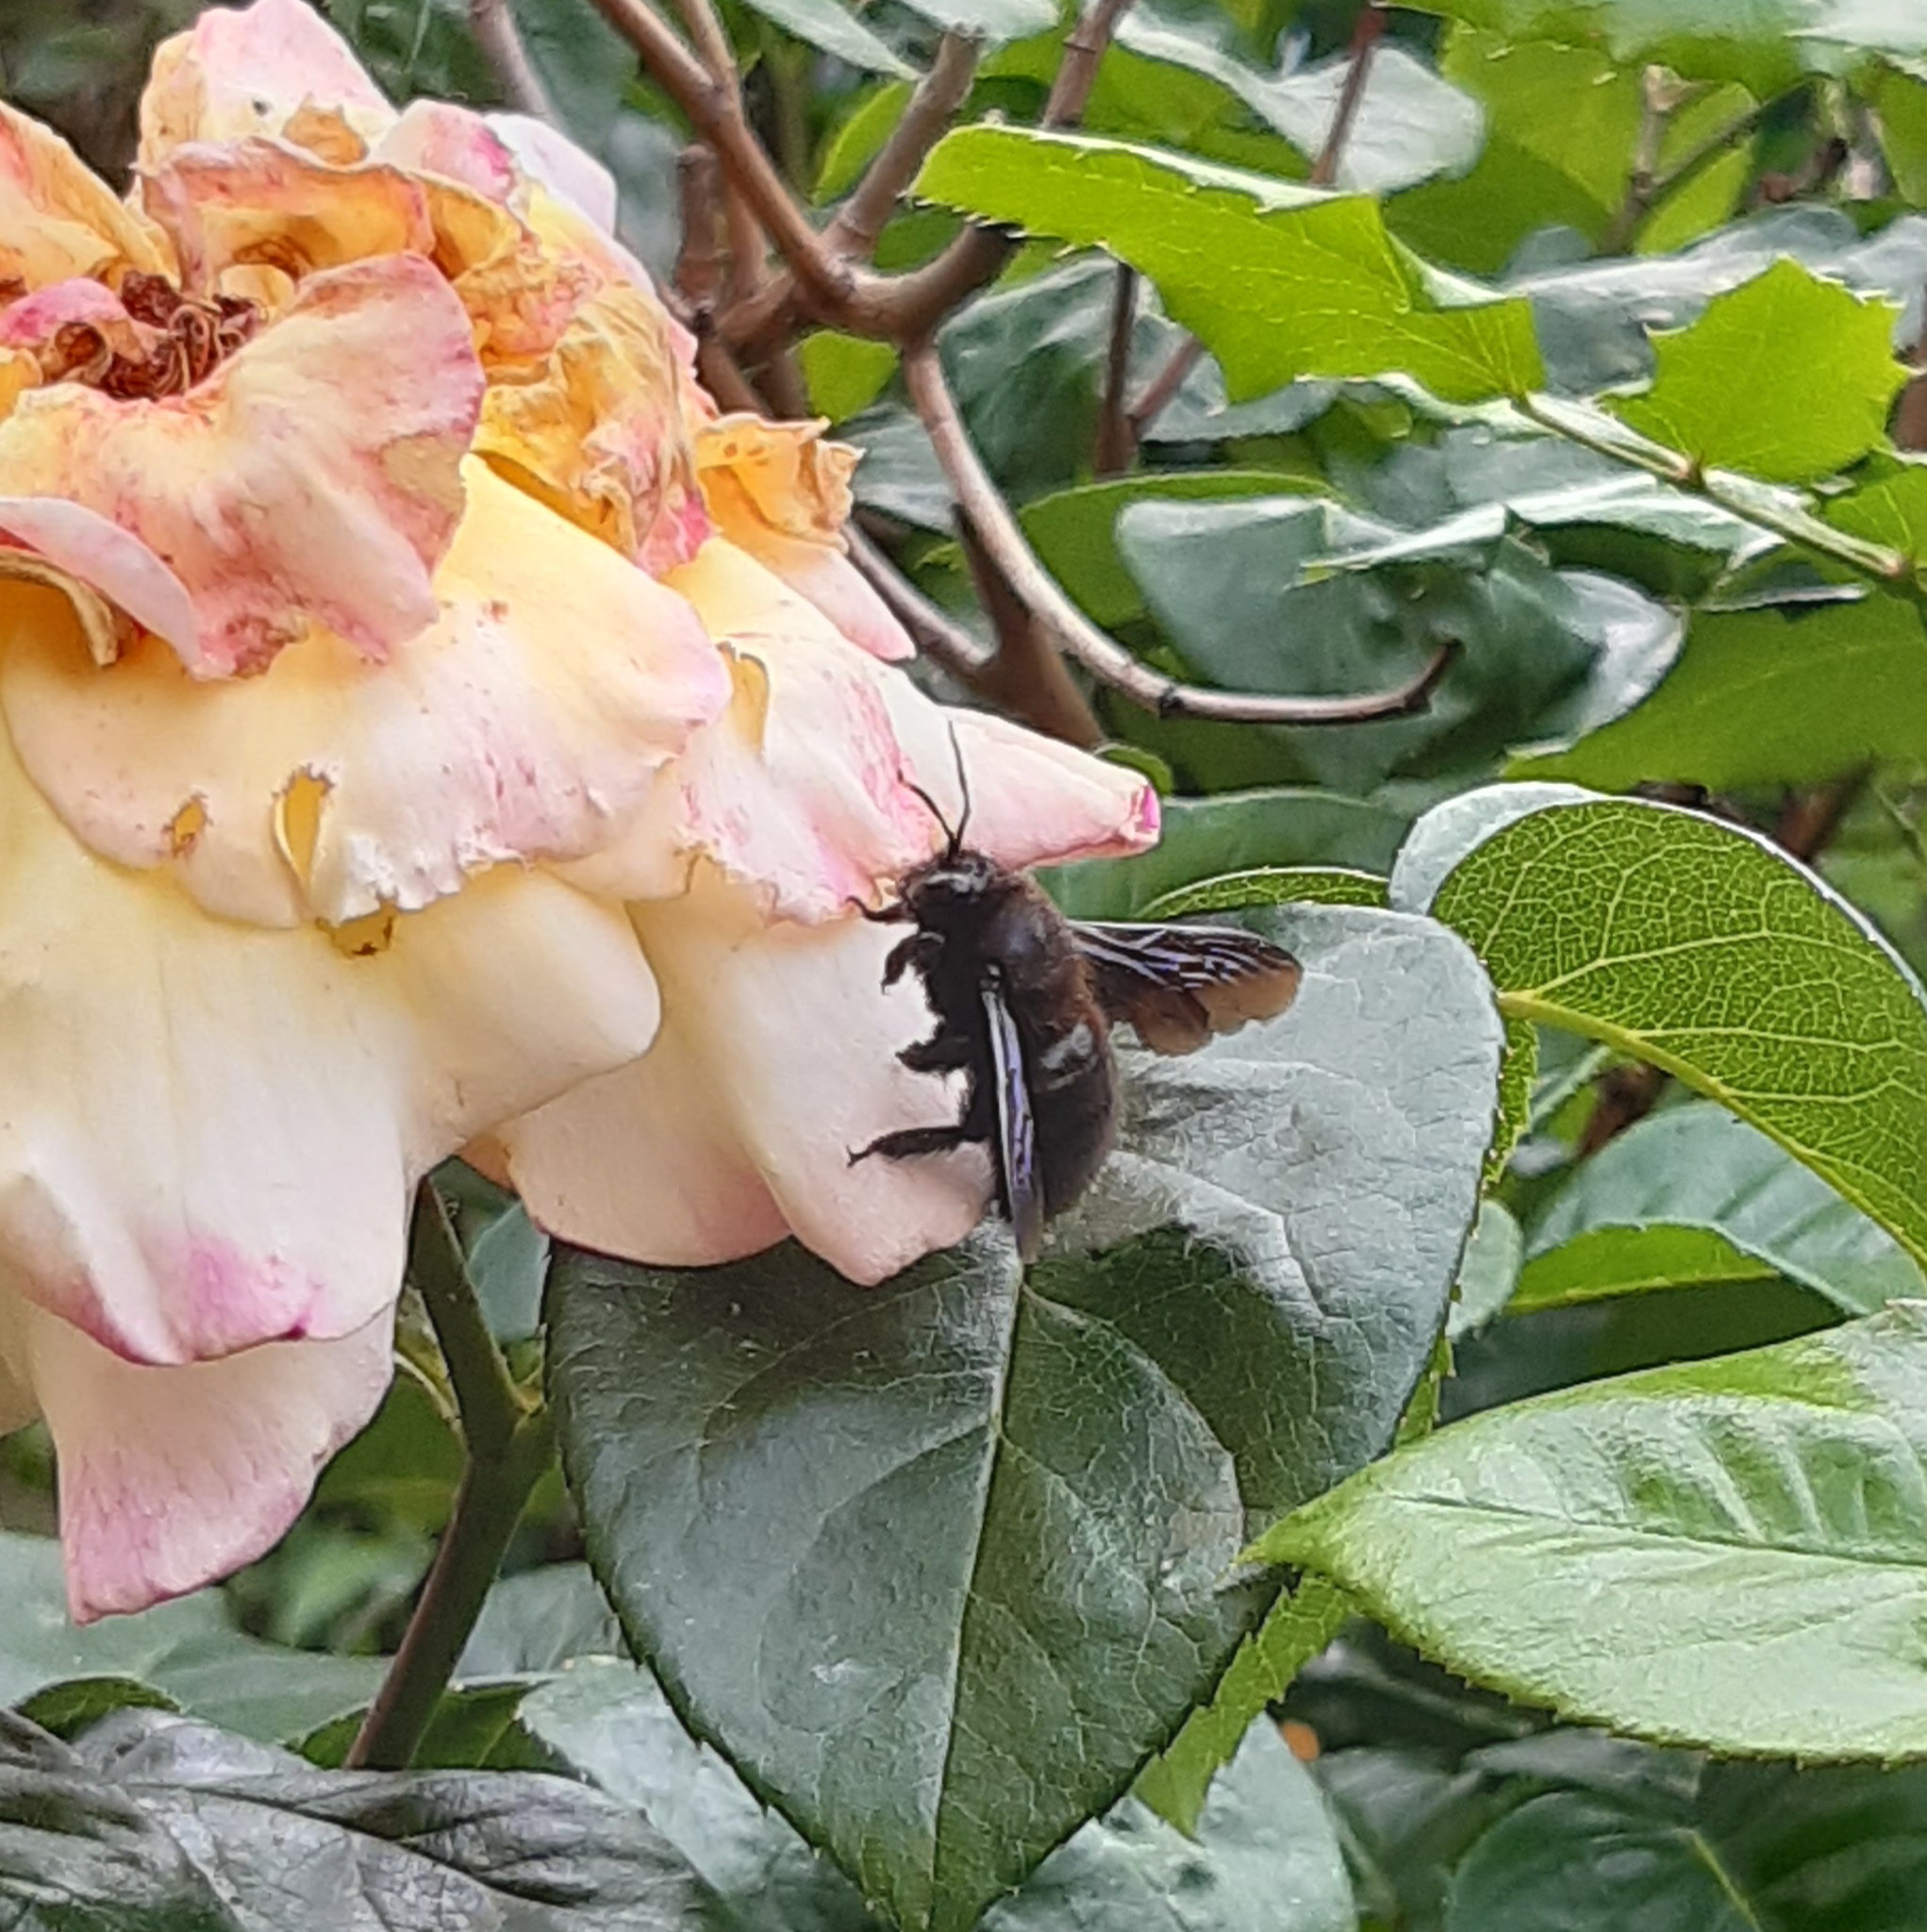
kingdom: Animalia
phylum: Arthropoda
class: Insecta
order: Hymenoptera
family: Apidae
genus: Xylocopa
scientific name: Xylocopa violacea
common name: Violet carpenter bee
